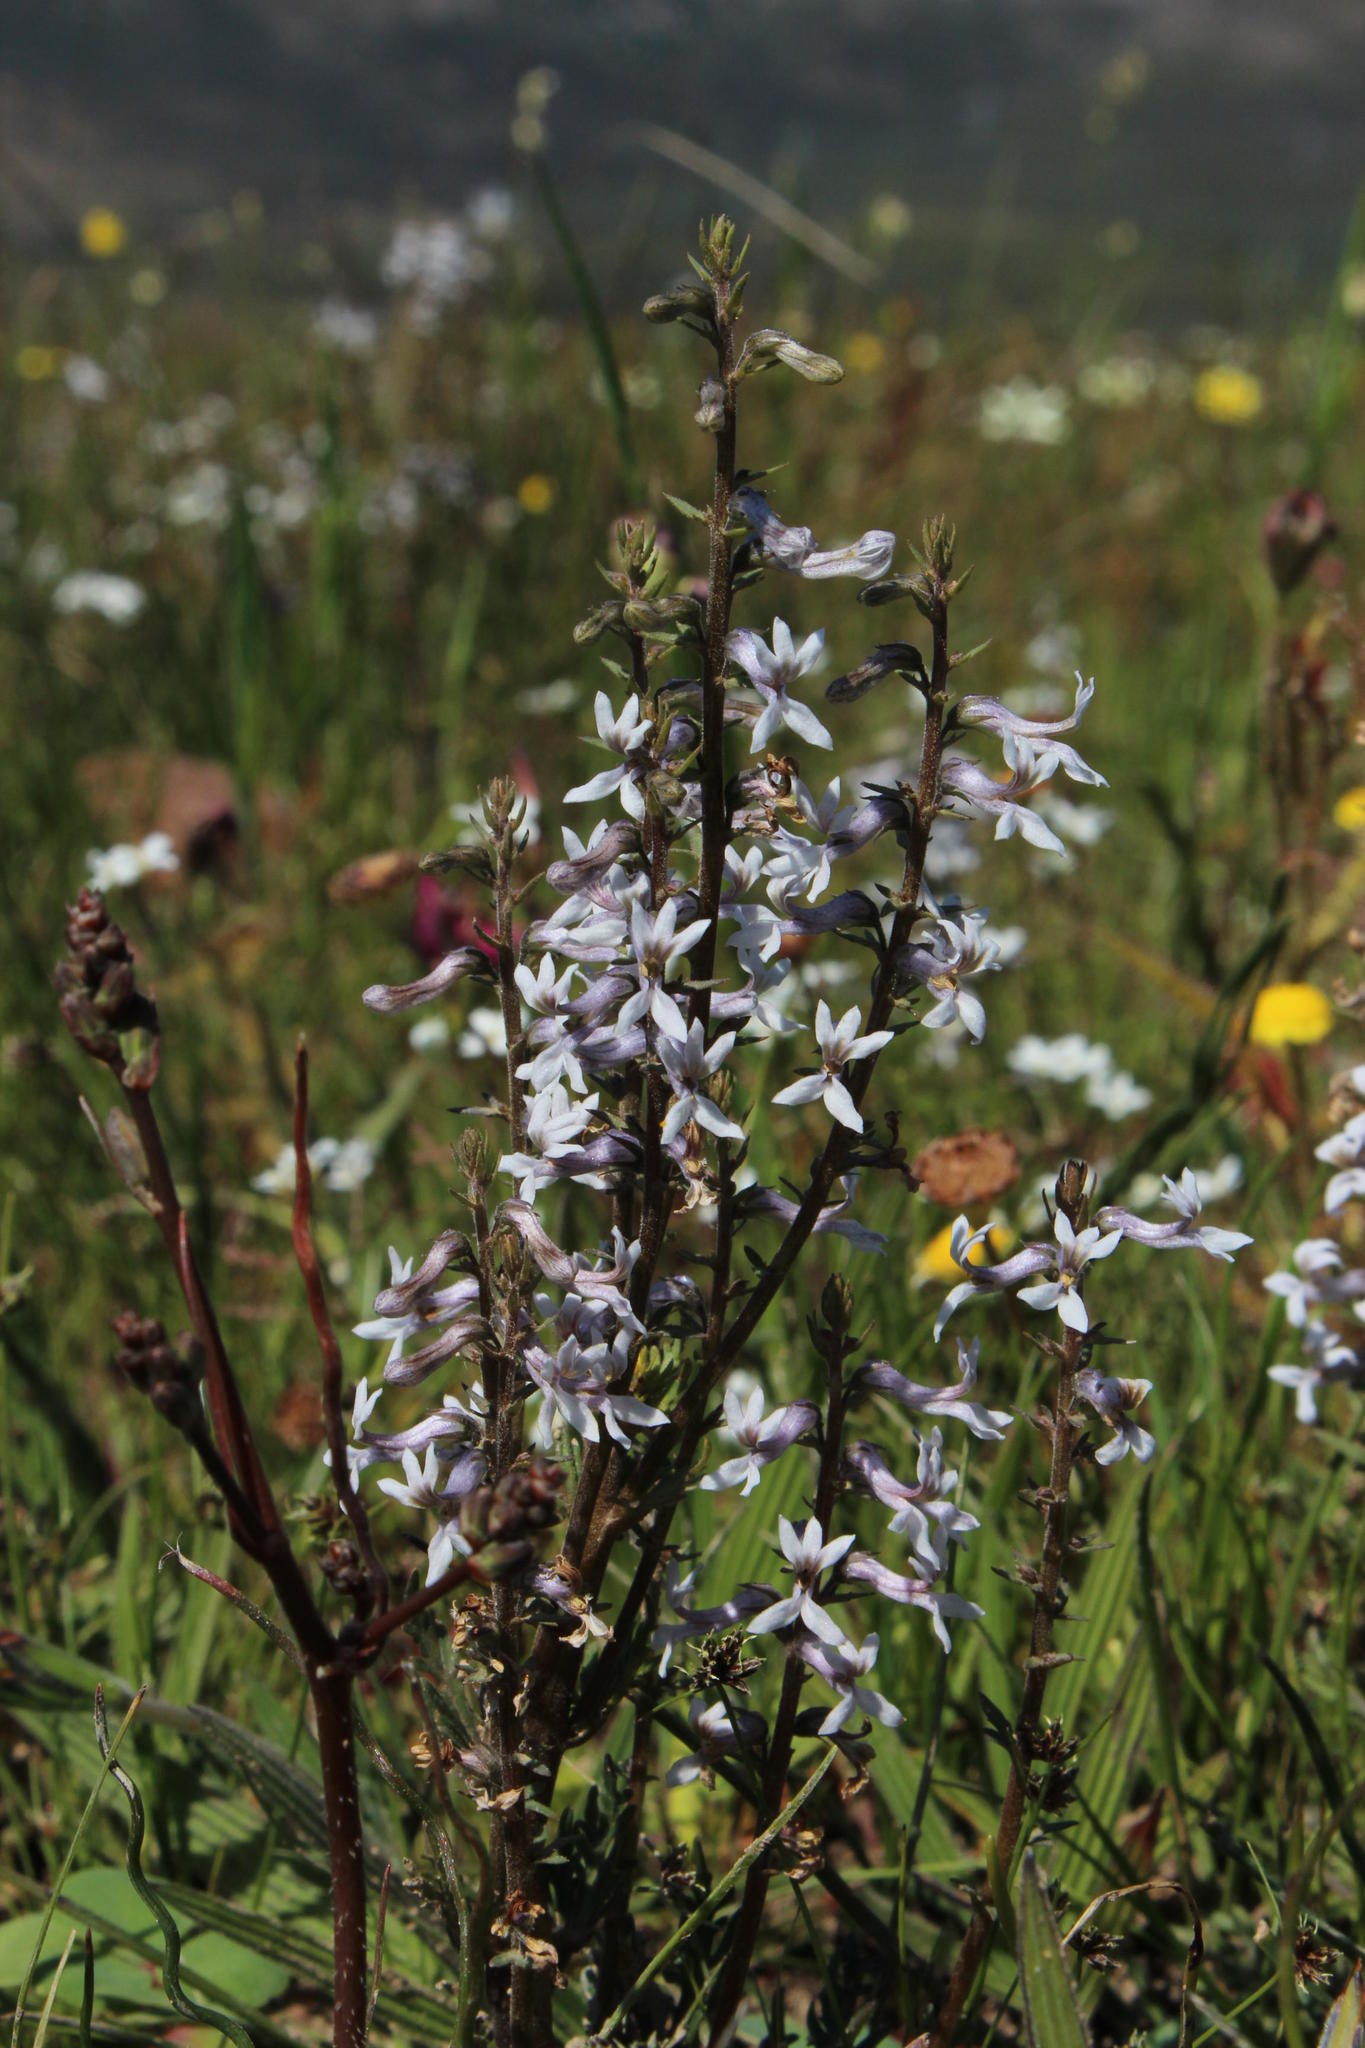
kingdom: Plantae
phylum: Tracheophyta
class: Magnoliopsida
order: Asterales
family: Campanulaceae
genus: Cyphia
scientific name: Cyphia bulbosa
